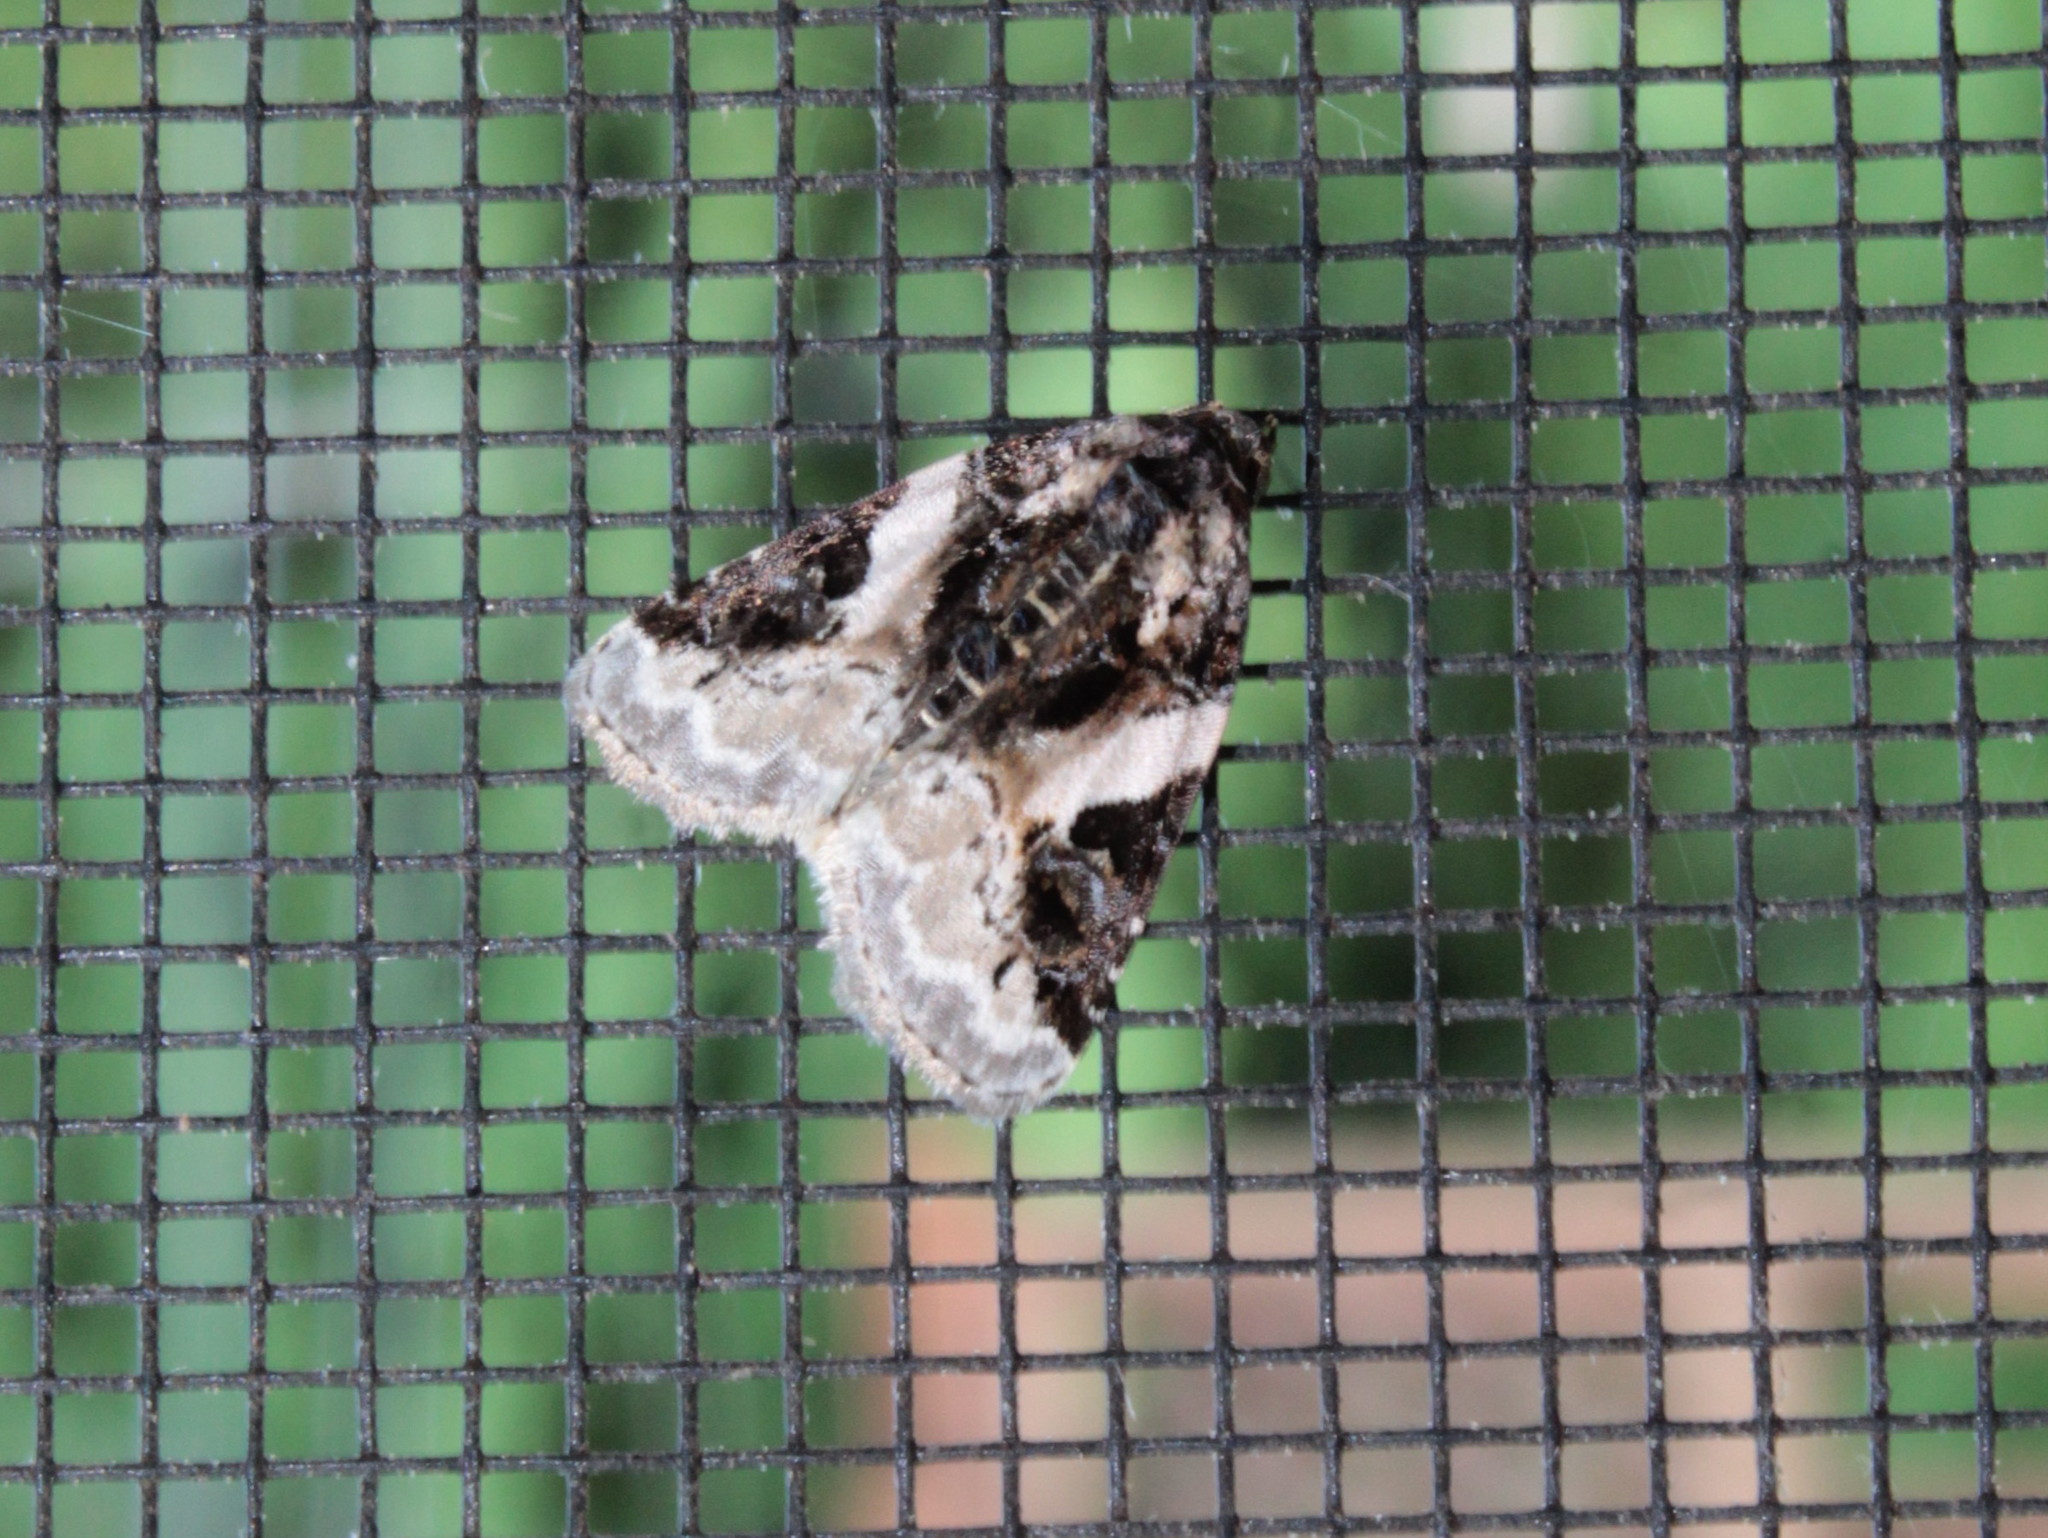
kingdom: Animalia
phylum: Arthropoda
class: Insecta
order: Lepidoptera
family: Noctuidae
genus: Pseudeustrotia
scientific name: Pseudeustrotia carneola
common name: Pink-barred lithacodia moth
